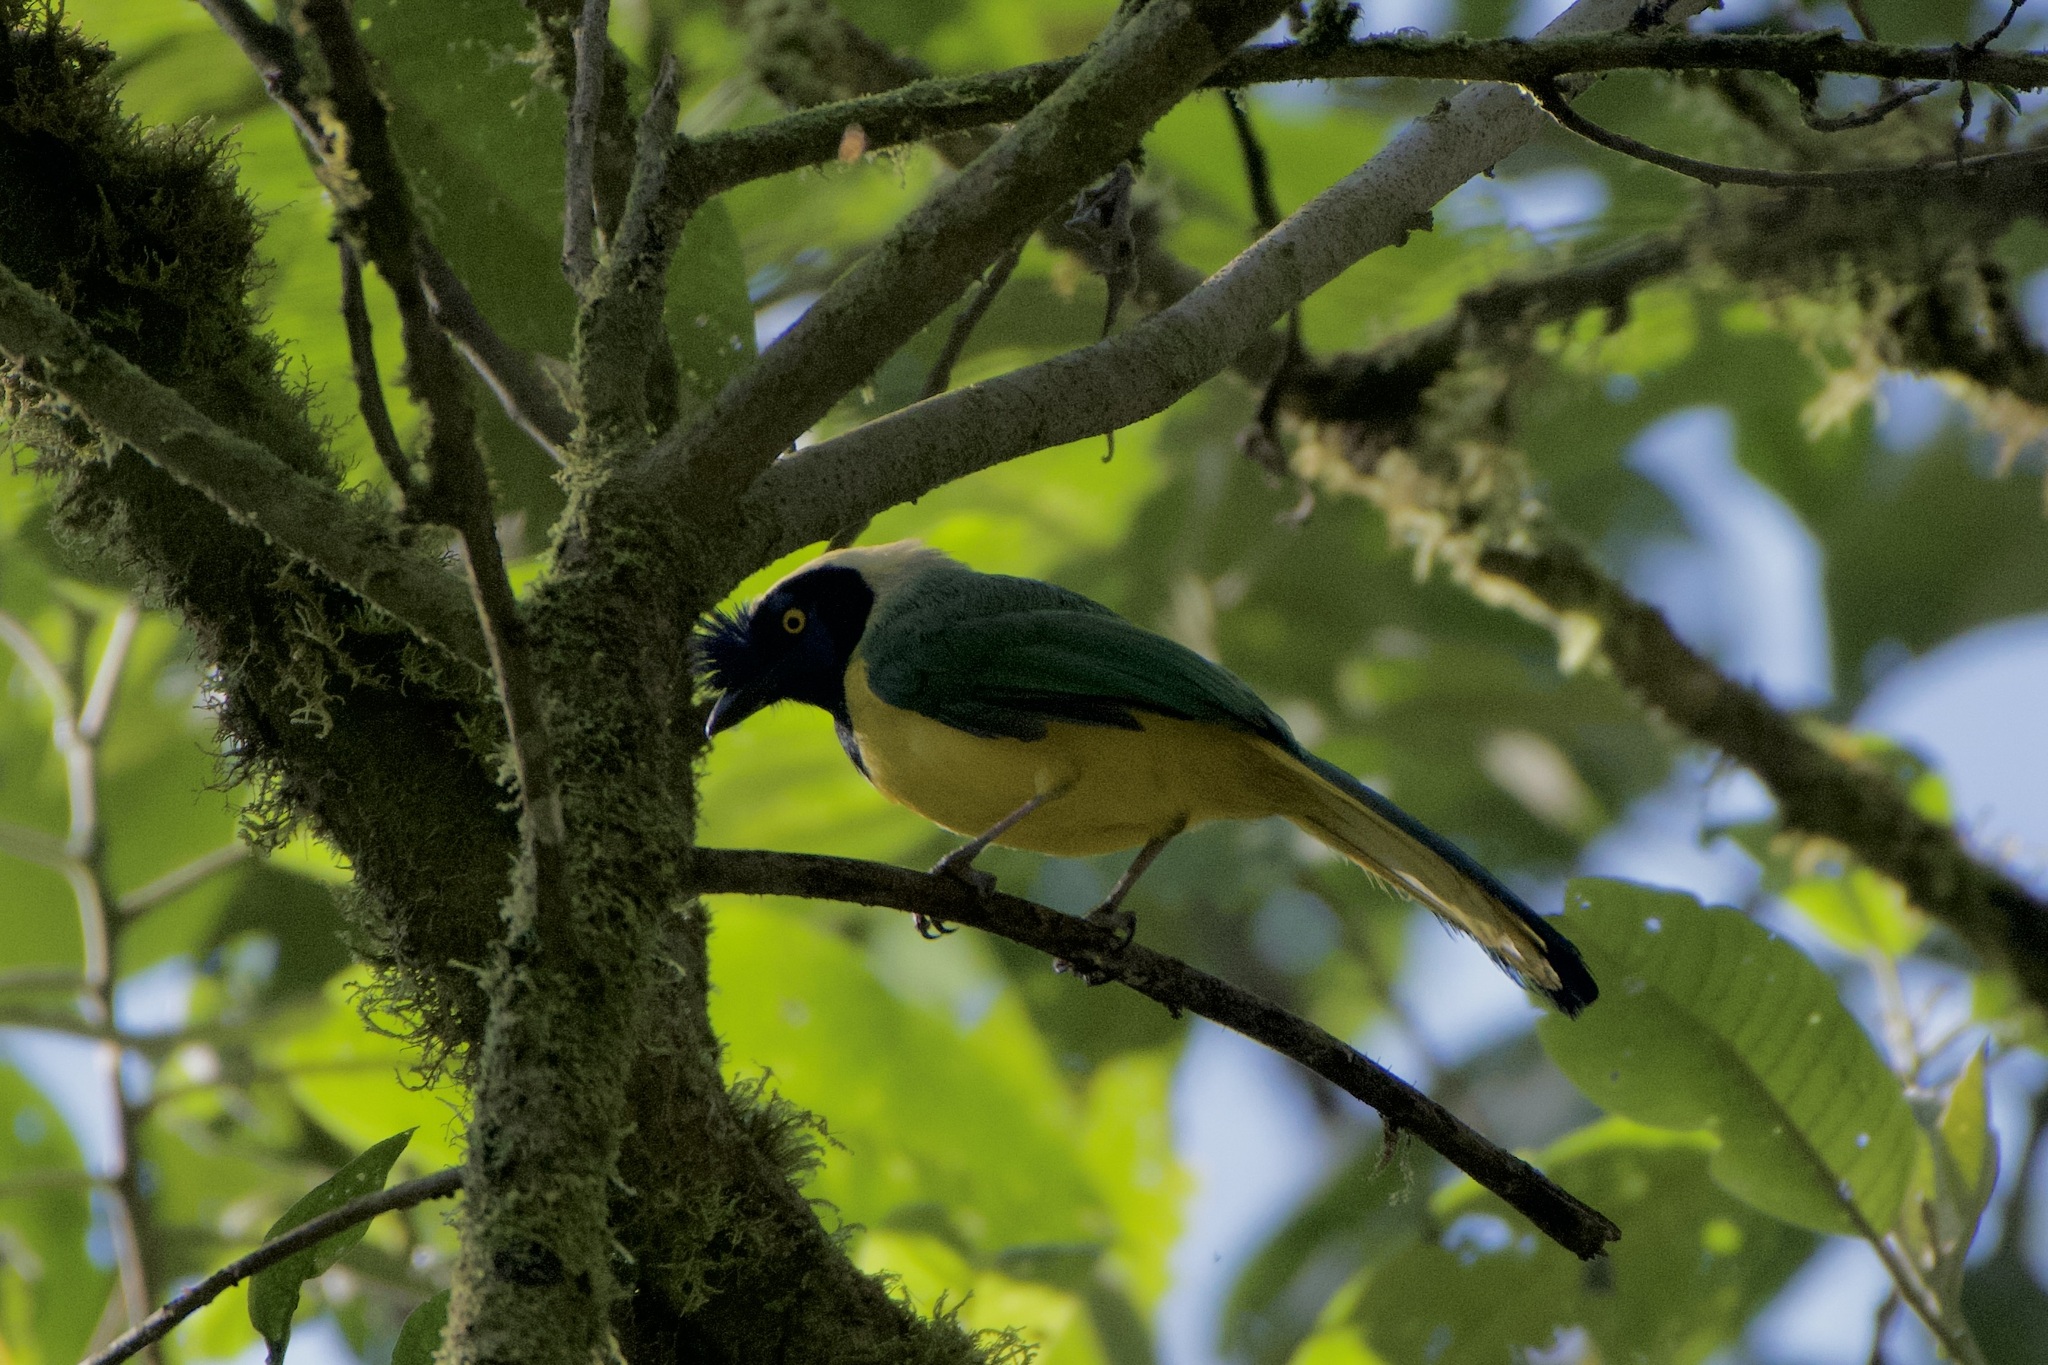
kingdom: Animalia
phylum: Chordata
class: Aves
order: Passeriformes
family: Corvidae
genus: Cyanocorax
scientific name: Cyanocorax yncas
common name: Green jay
